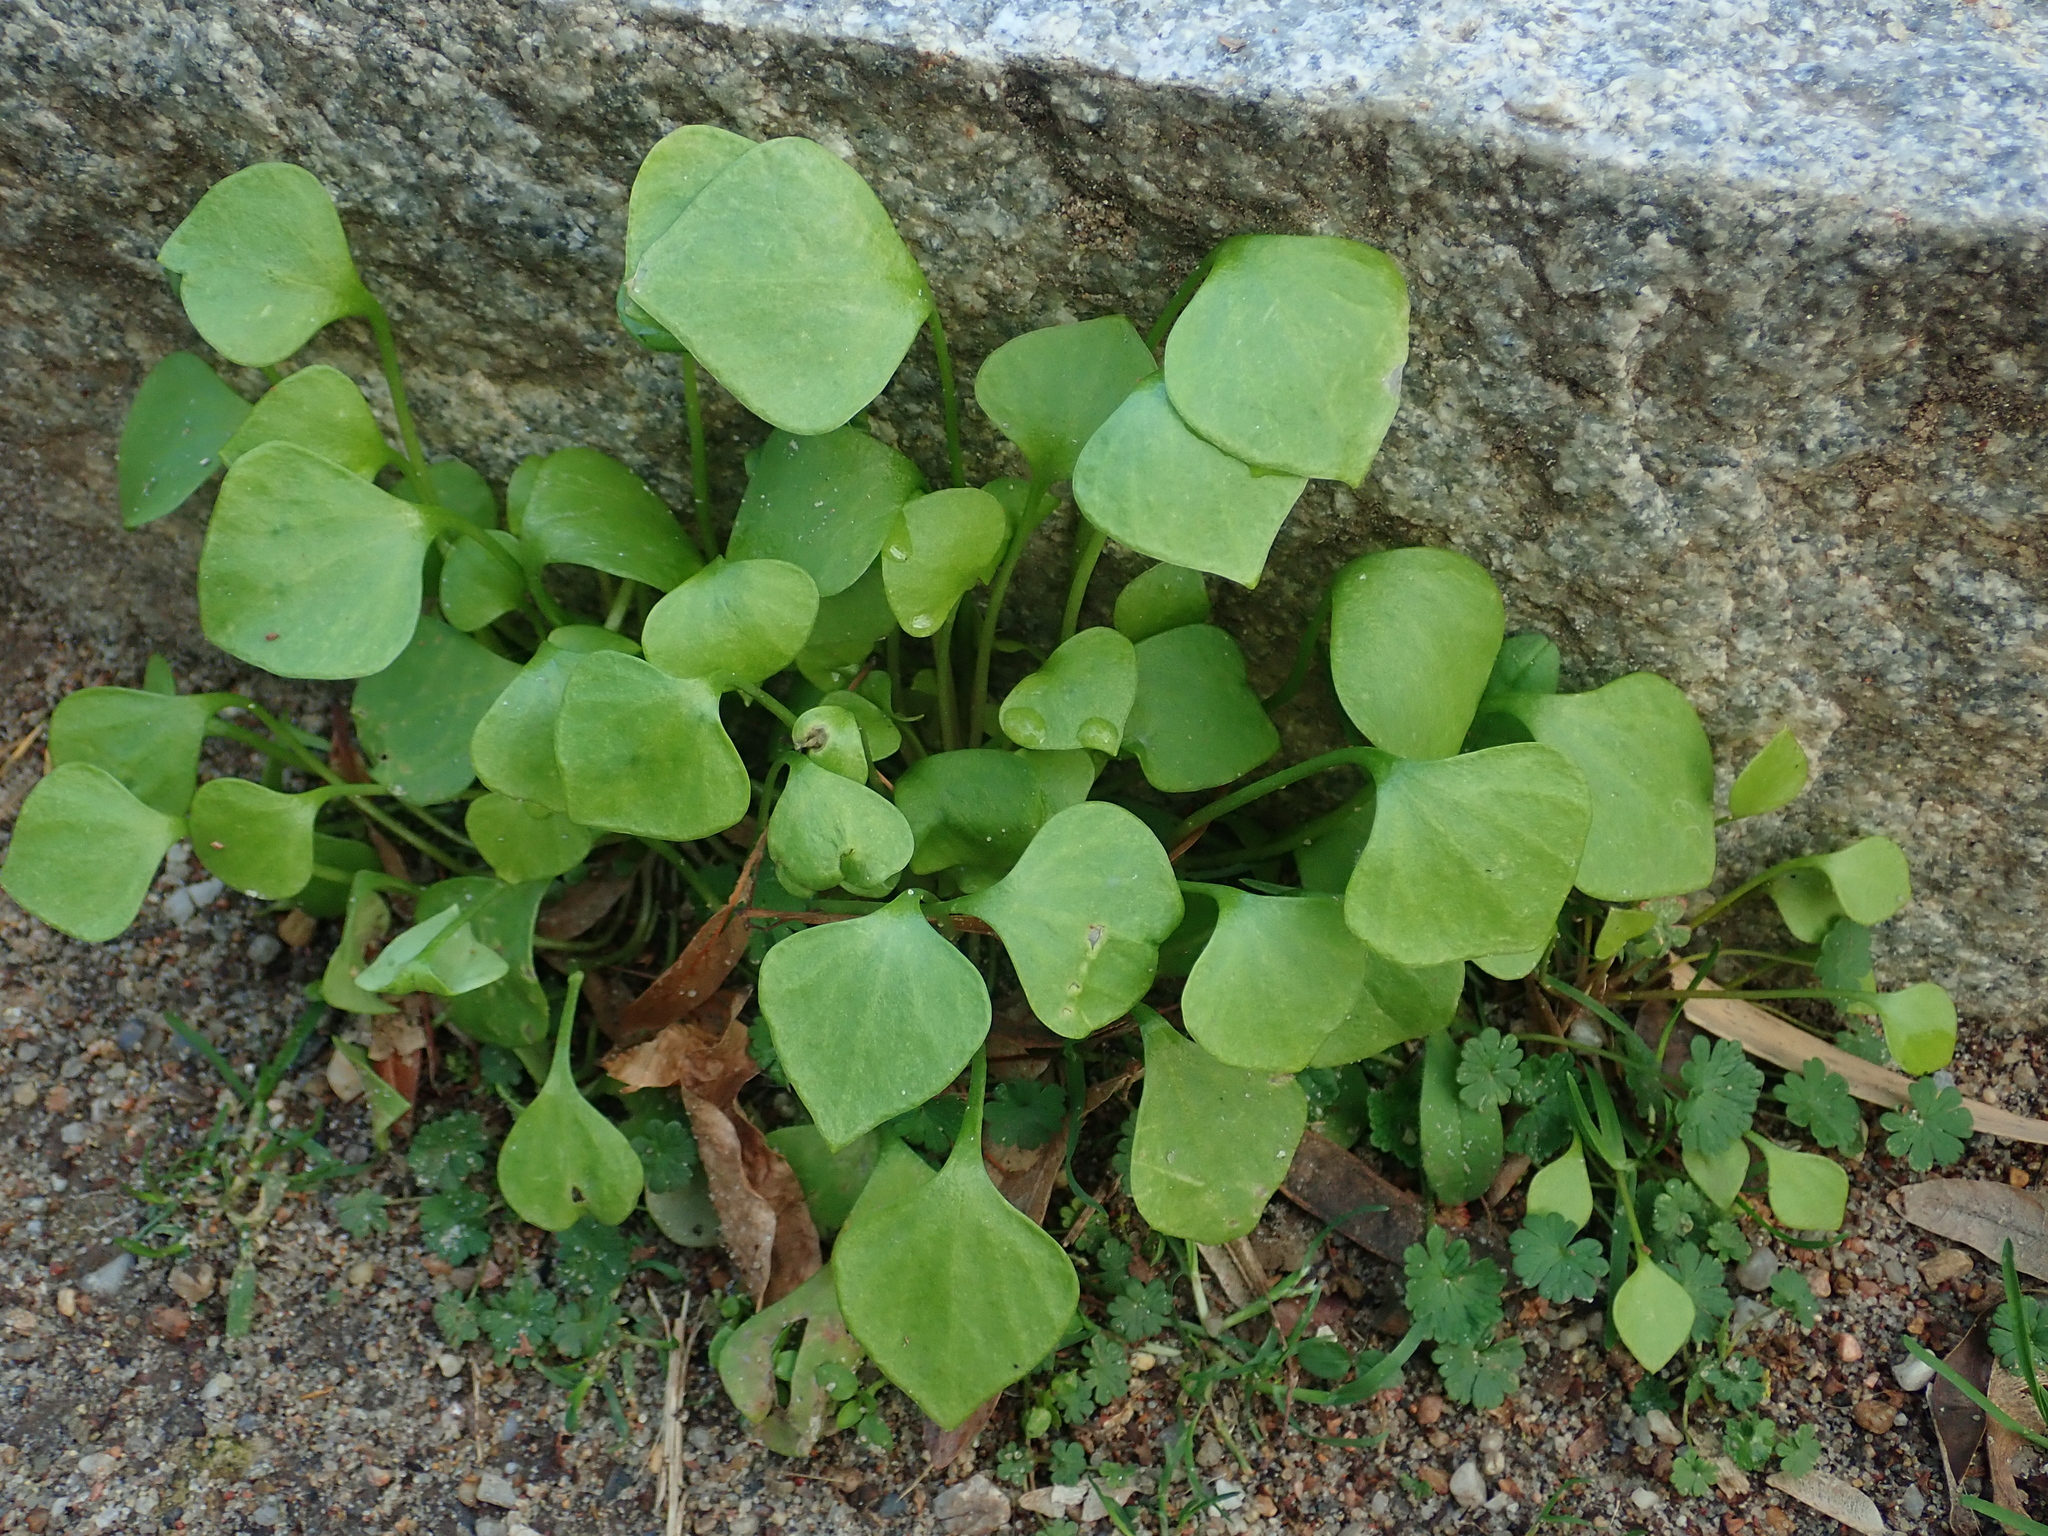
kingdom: Plantae
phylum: Tracheophyta
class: Magnoliopsida
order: Caryophyllales
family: Montiaceae
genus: Claytonia
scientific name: Claytonia perfoliata
